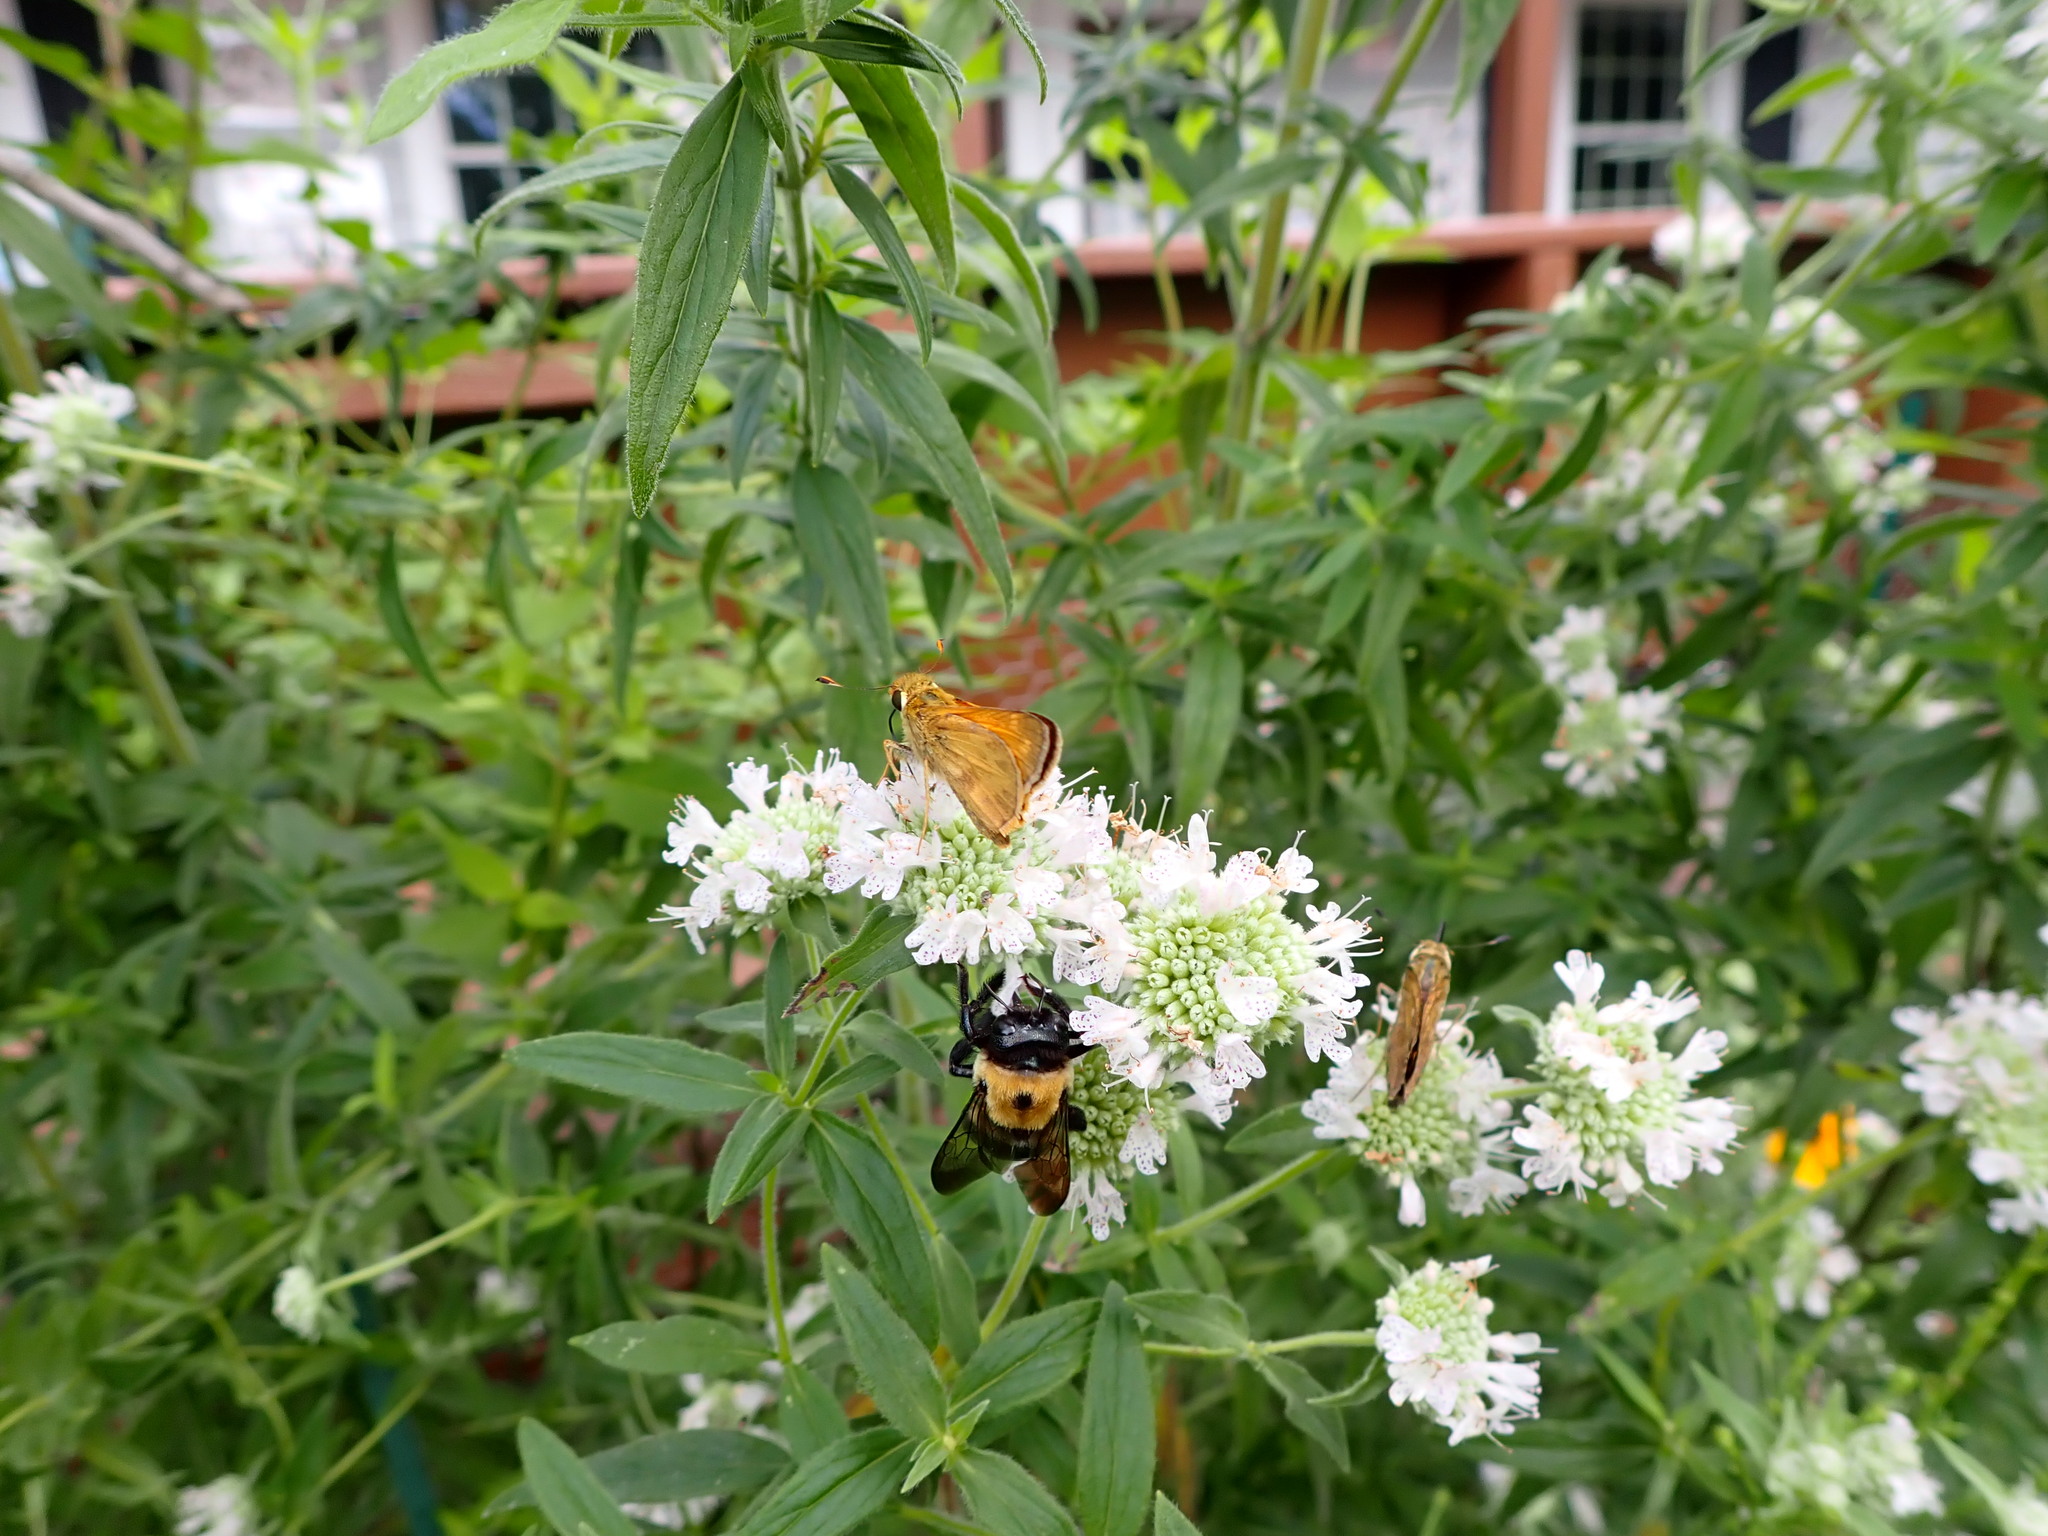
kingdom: Animalia
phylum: Arthropoda
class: Insecta
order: Hymenoptera
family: Apidae
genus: Xylocopa
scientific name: Xylocopa virginica
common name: Carpenter bee
